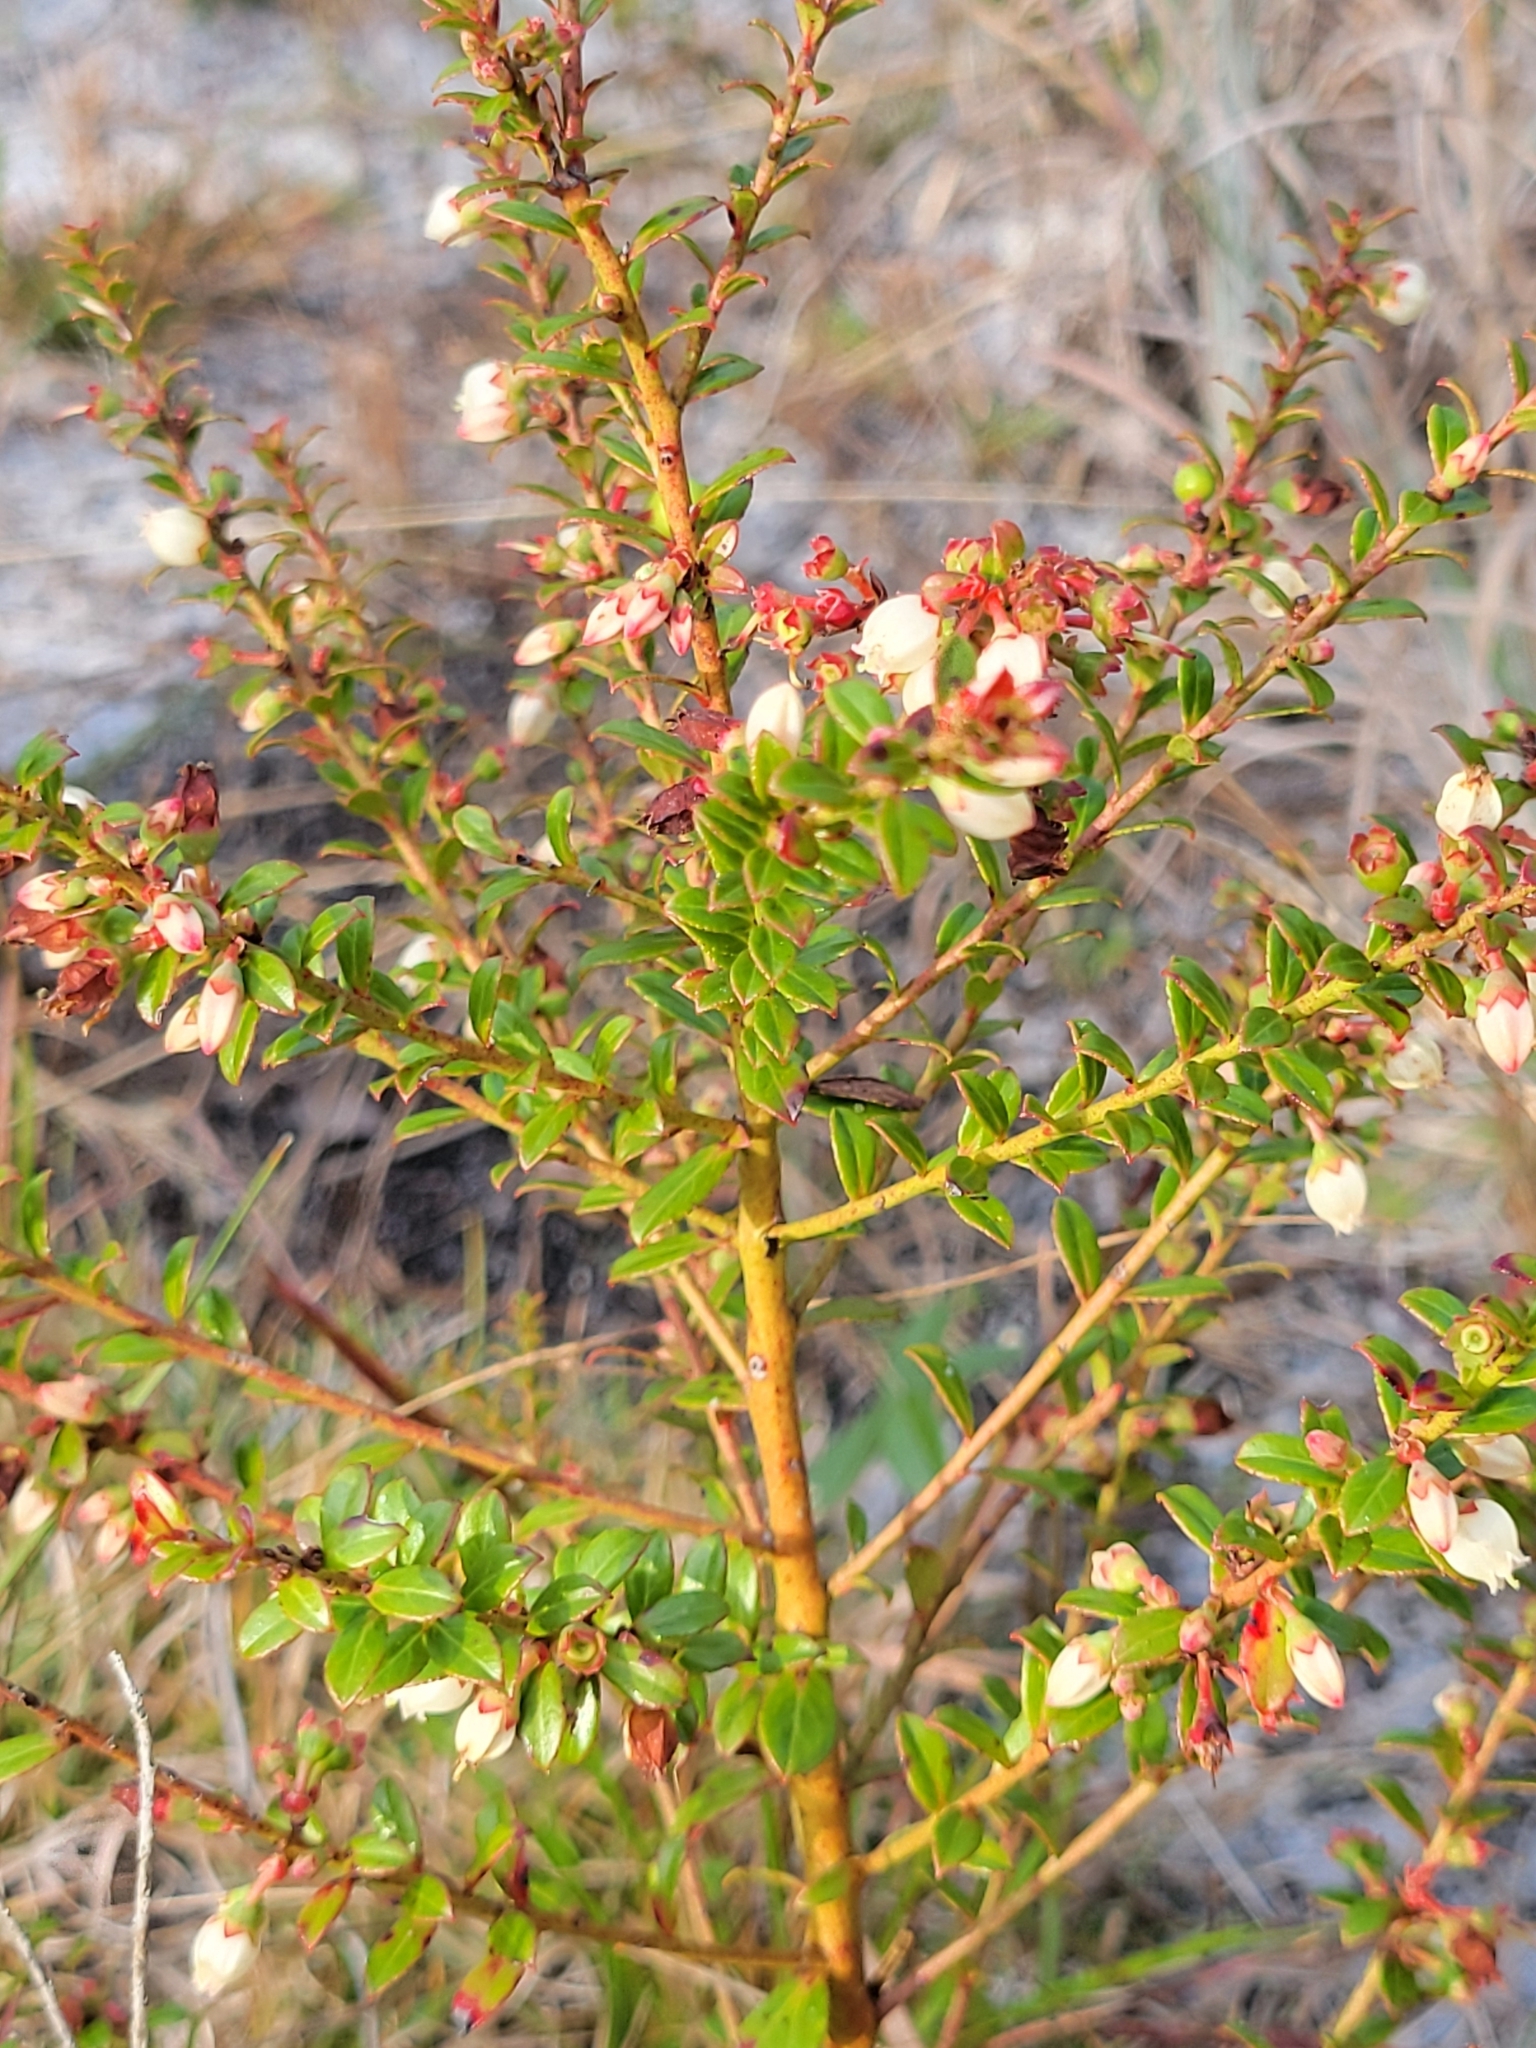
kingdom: Plantae
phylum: Tracheophyta
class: Magnoliopsida
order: Ericales
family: Ericaceae
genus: Vaccinium
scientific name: Vaccinium myrsinites
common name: Evergreen blueberry
